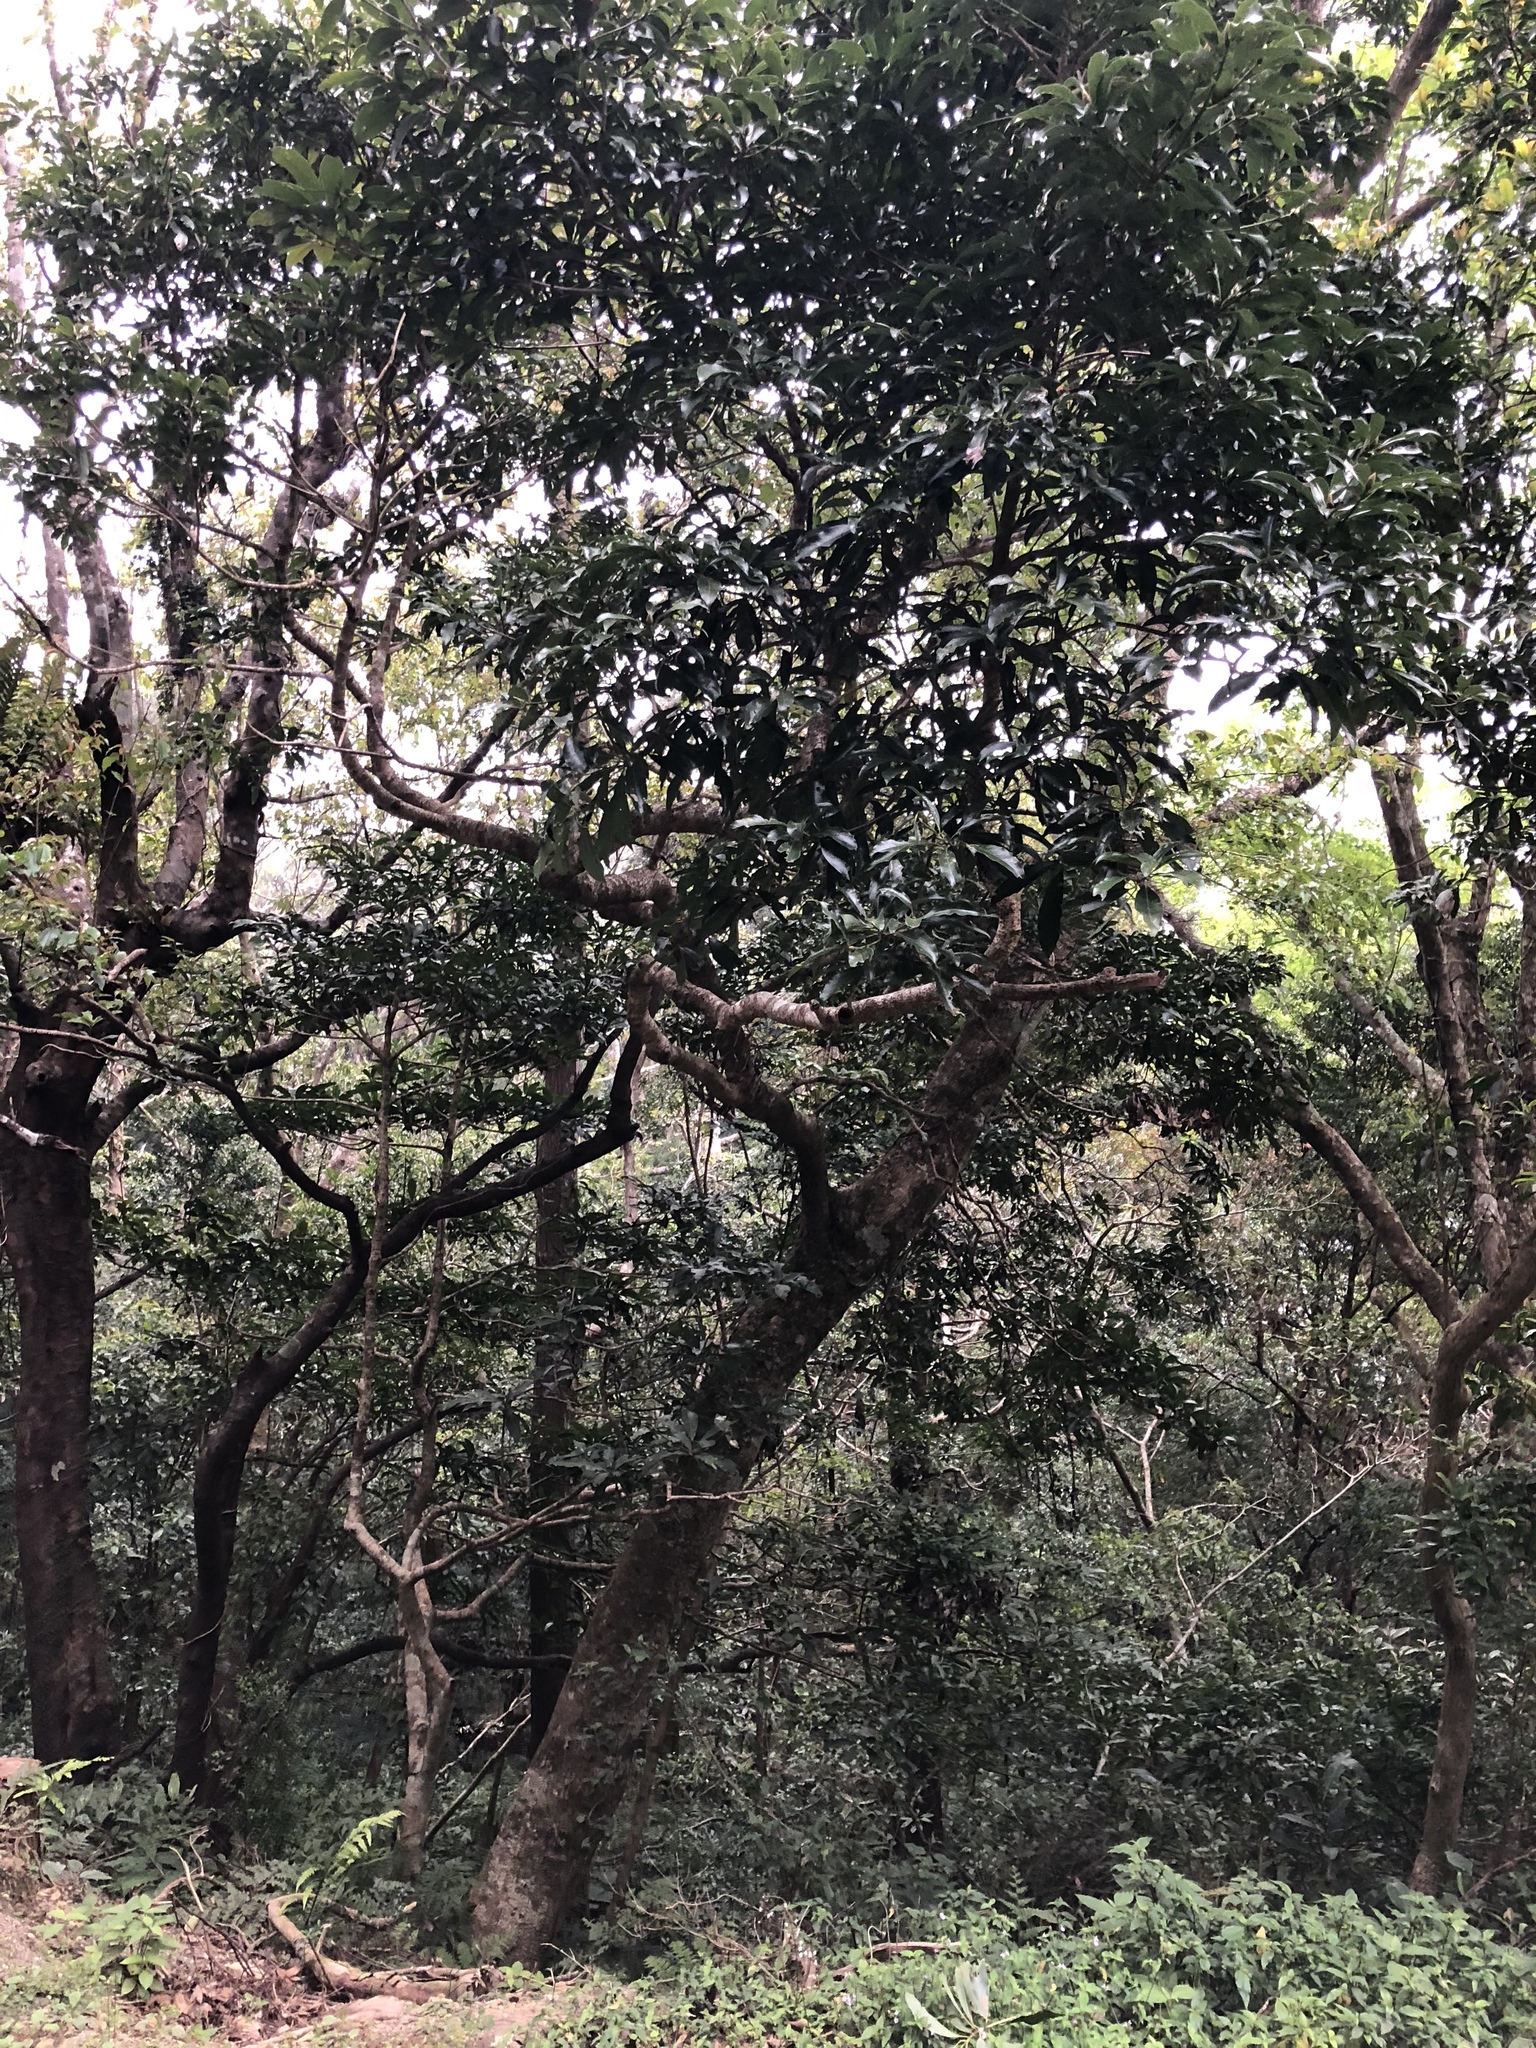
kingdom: Plantae
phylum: Tracheophyta
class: Magnoliopsida
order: Laurales
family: Lauraceae
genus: Lindera
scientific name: Lindera communis
